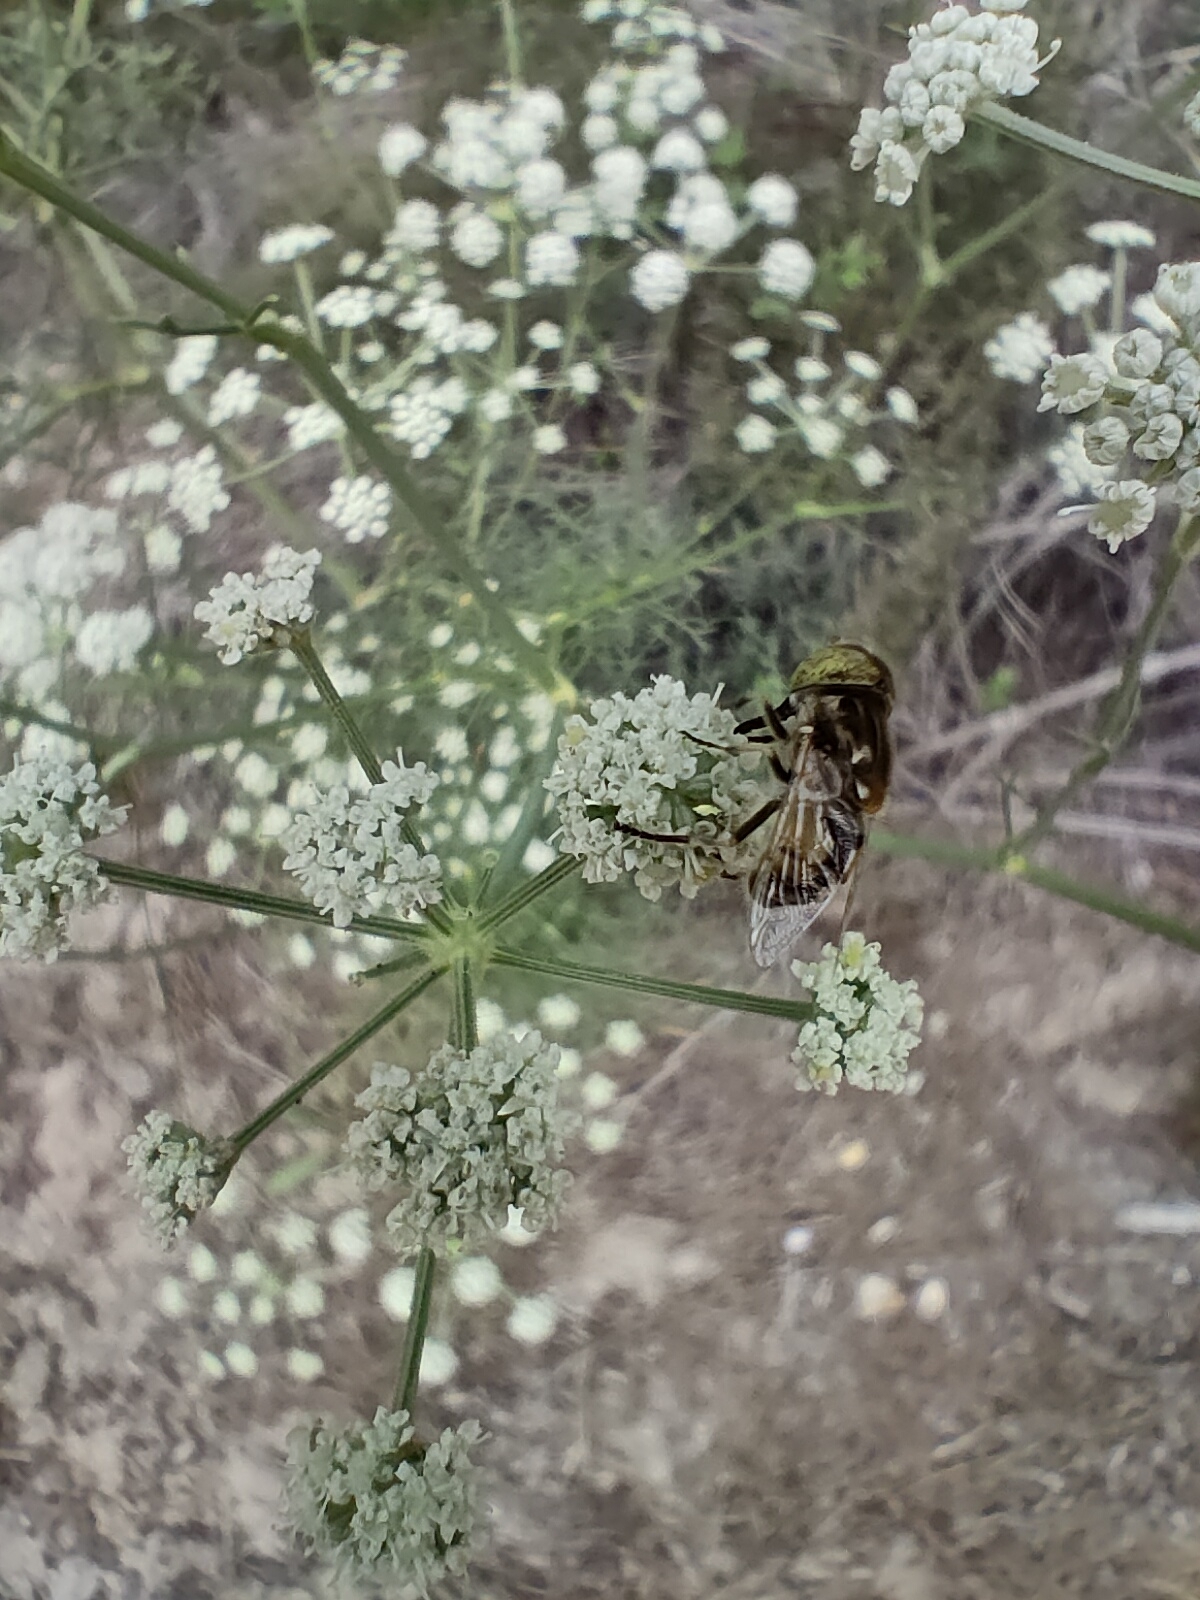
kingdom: Animalia
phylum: Arthropoda
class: Insecta
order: Diptera
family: Syrphidae
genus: Eristalinus
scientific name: Eristalinus megacephalus
